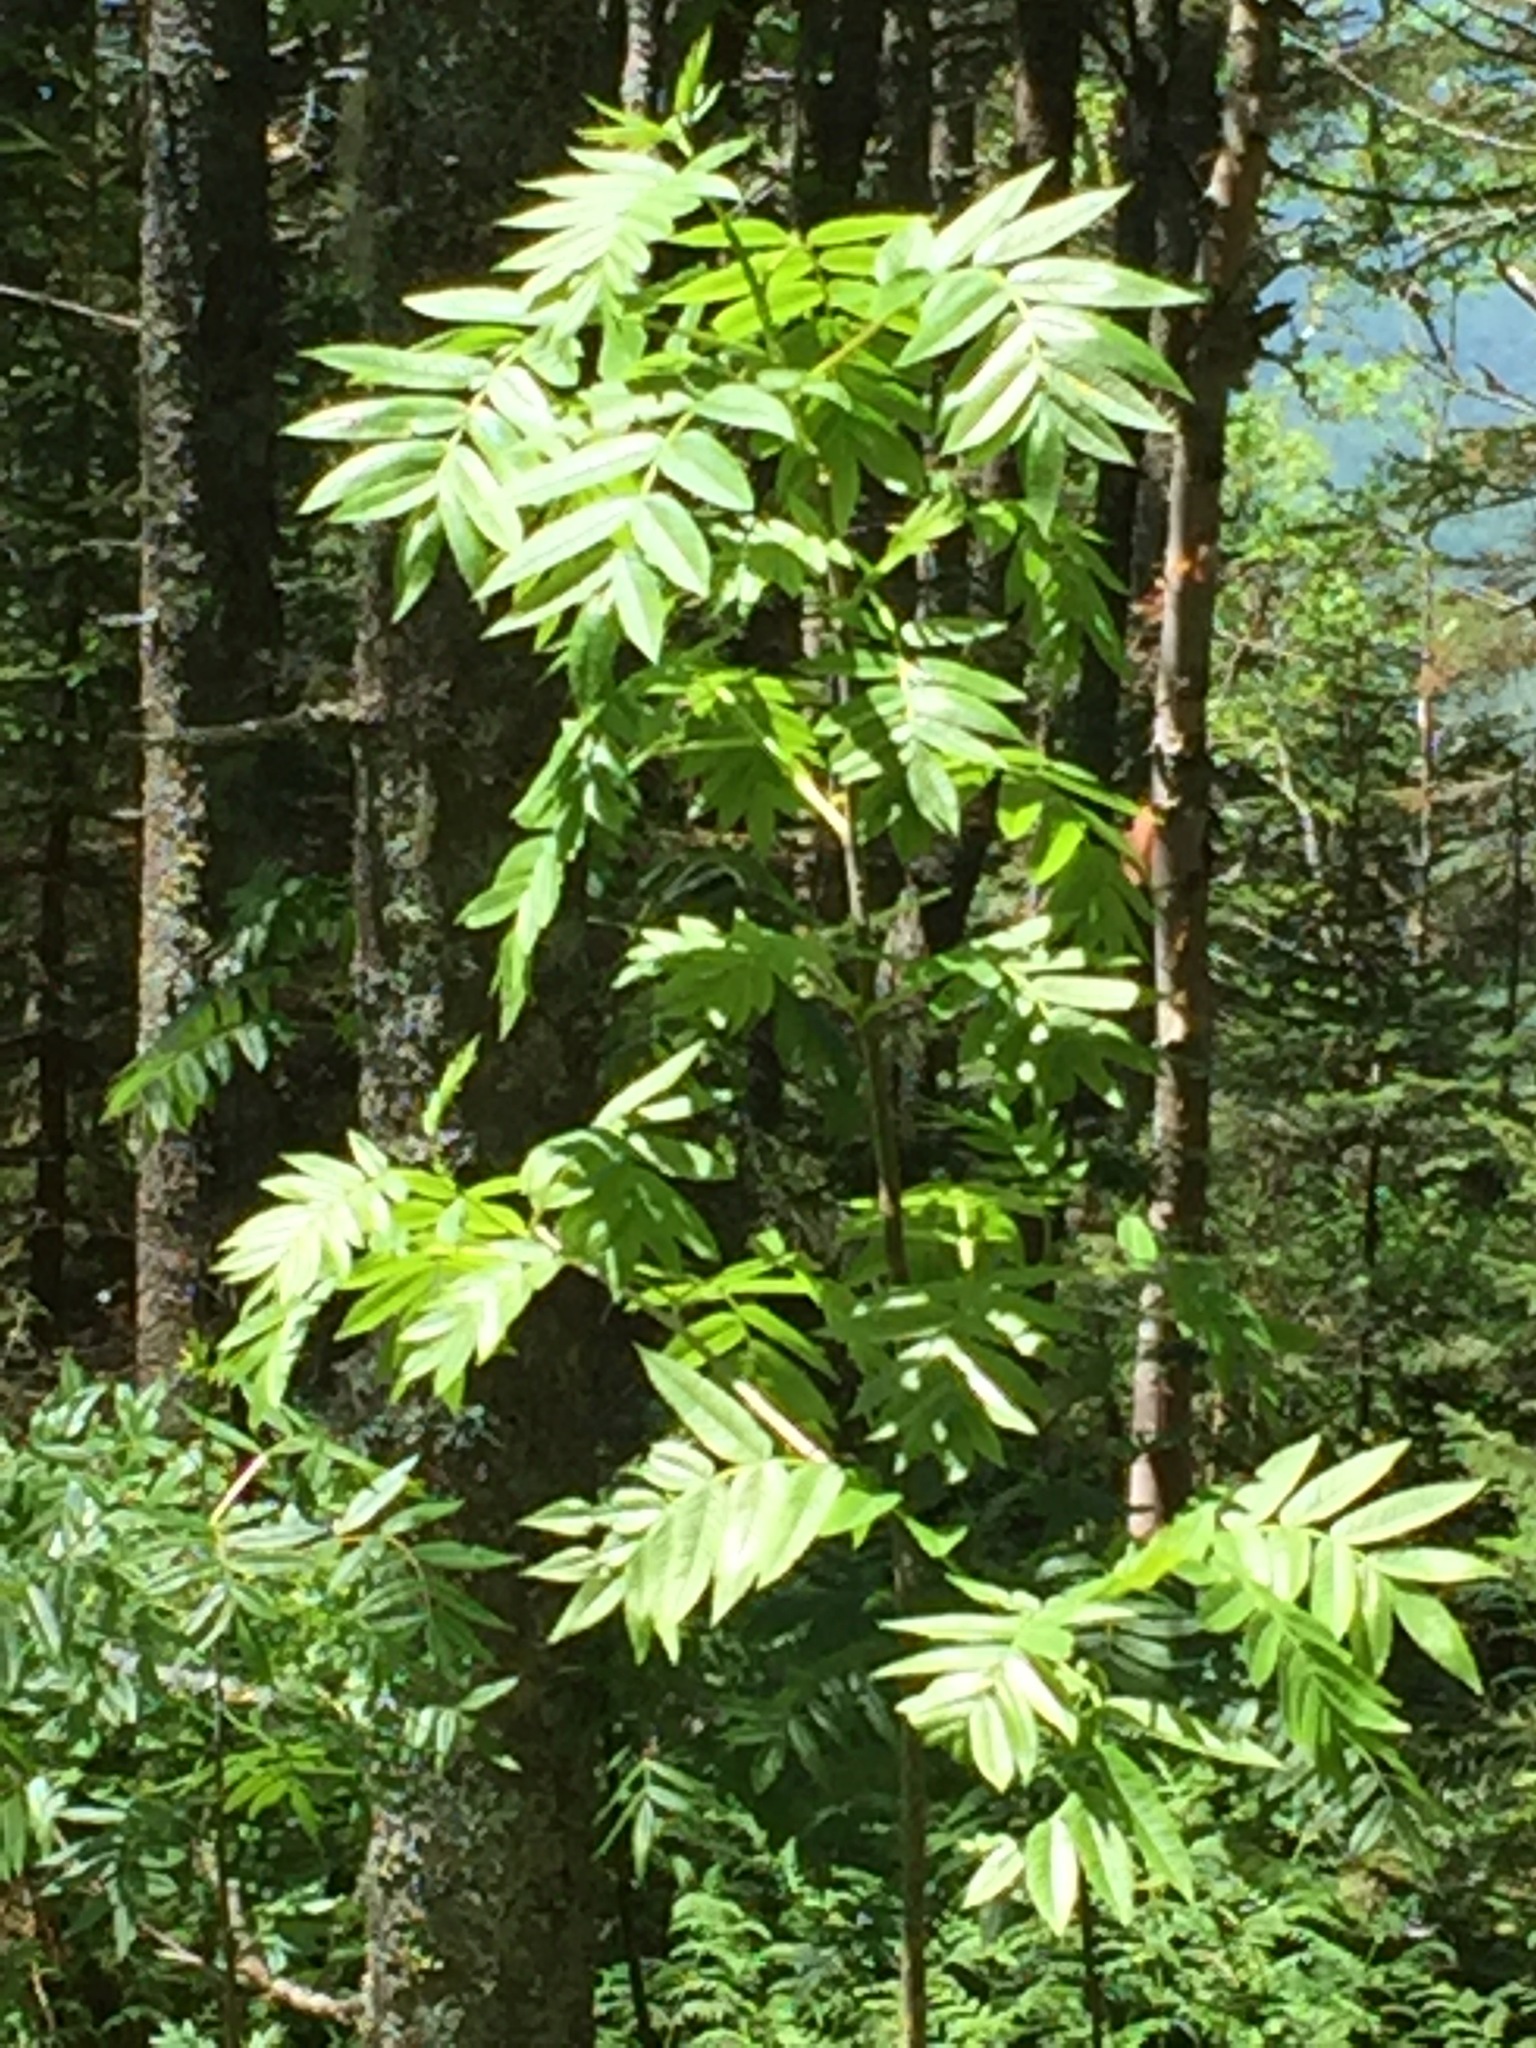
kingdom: Plantae
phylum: Tracheophyta
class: Magnoliopsida
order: Rosales
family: Rosaceae
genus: Sorbus
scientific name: Sorbus americana
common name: American mountain-ash
